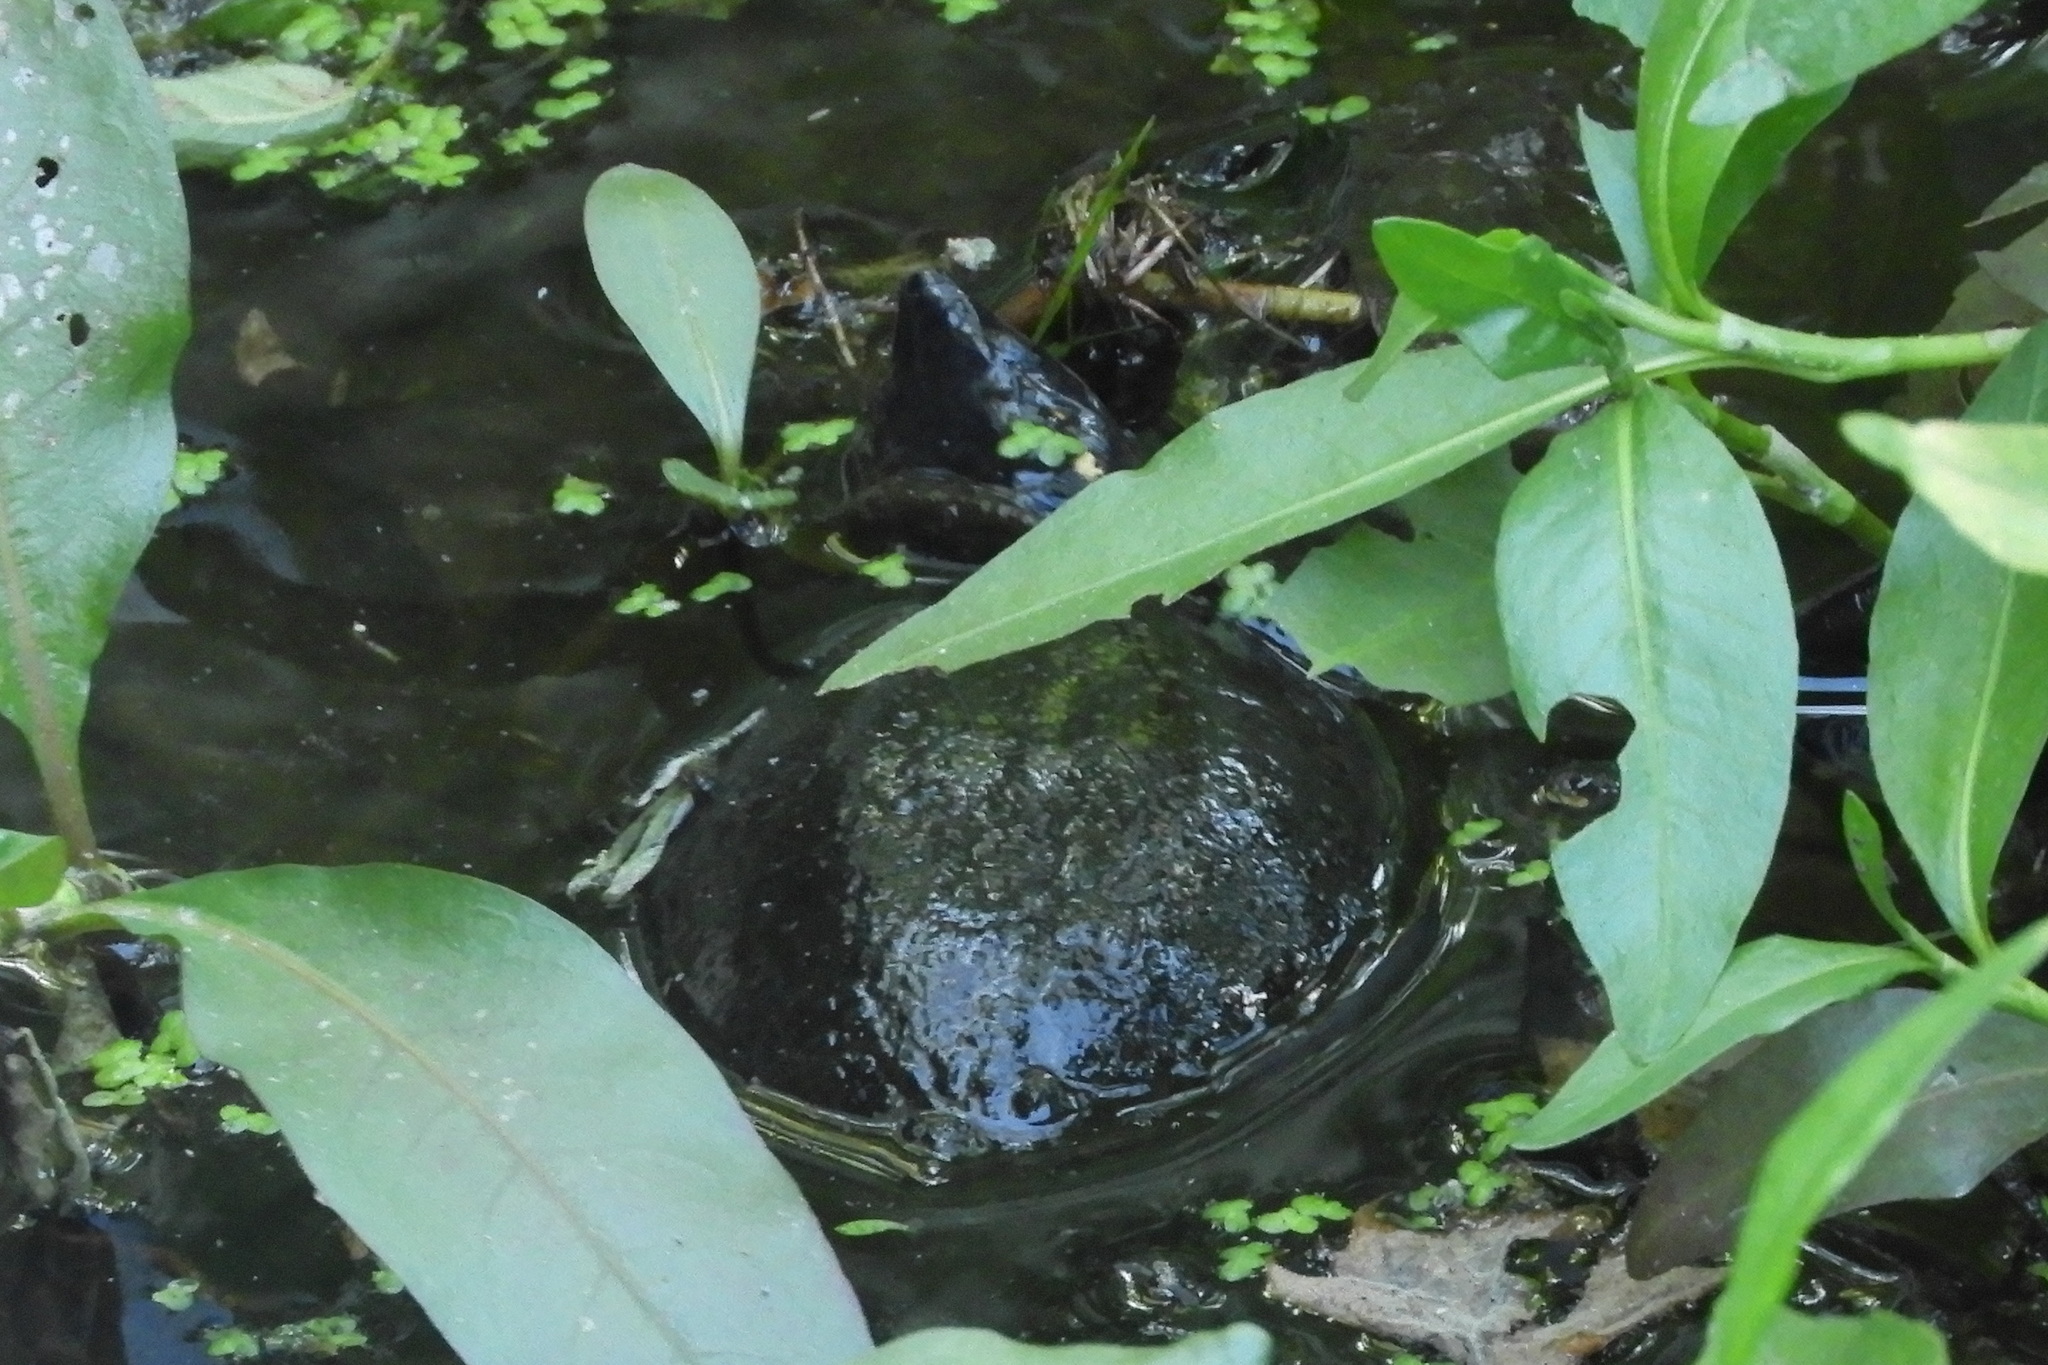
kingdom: Animalia
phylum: Chordata
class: Testudines
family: Kinosternidae
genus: Sternotherus
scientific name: Sternotherus odoratus
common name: Common musk turtle
